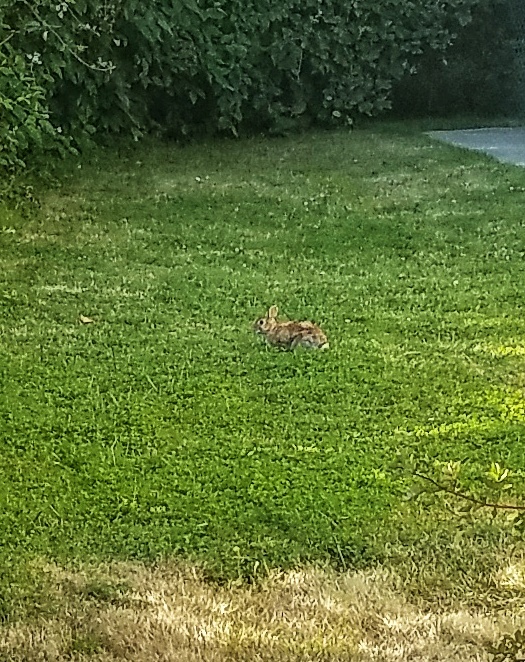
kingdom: Animalia
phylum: Chordata
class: Mammalia
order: Lagomorpha
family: Leporidae
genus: Sylvilagus
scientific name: Sylvilagus floridanus
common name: Eastern cottontail
